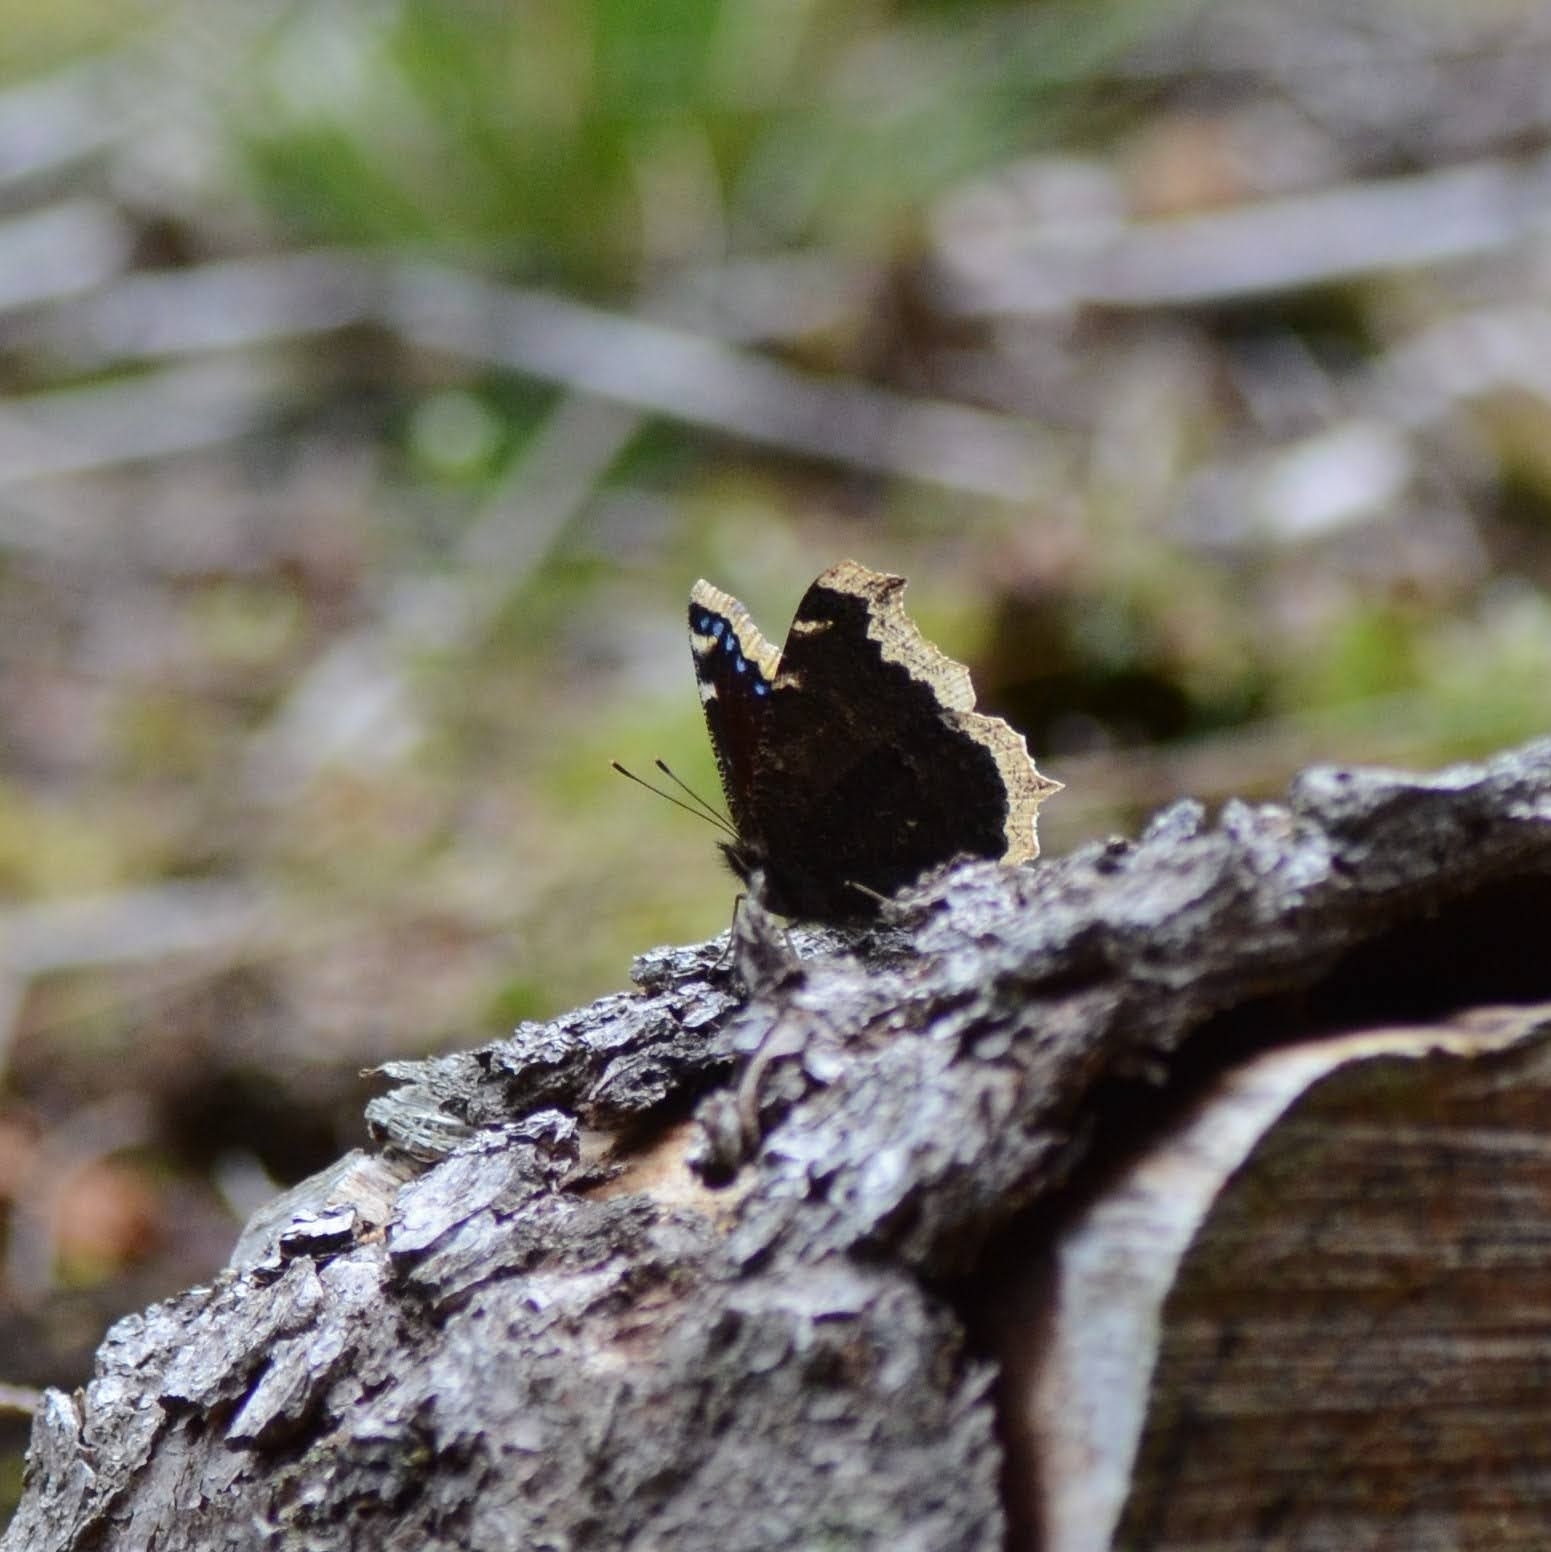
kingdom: Animalia
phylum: Arthropoda
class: Insecta
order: Lepidoptera
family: Nymphalidae
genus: Nymphalis
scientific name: Nymphalis antiopa
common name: Camberwell beauty
